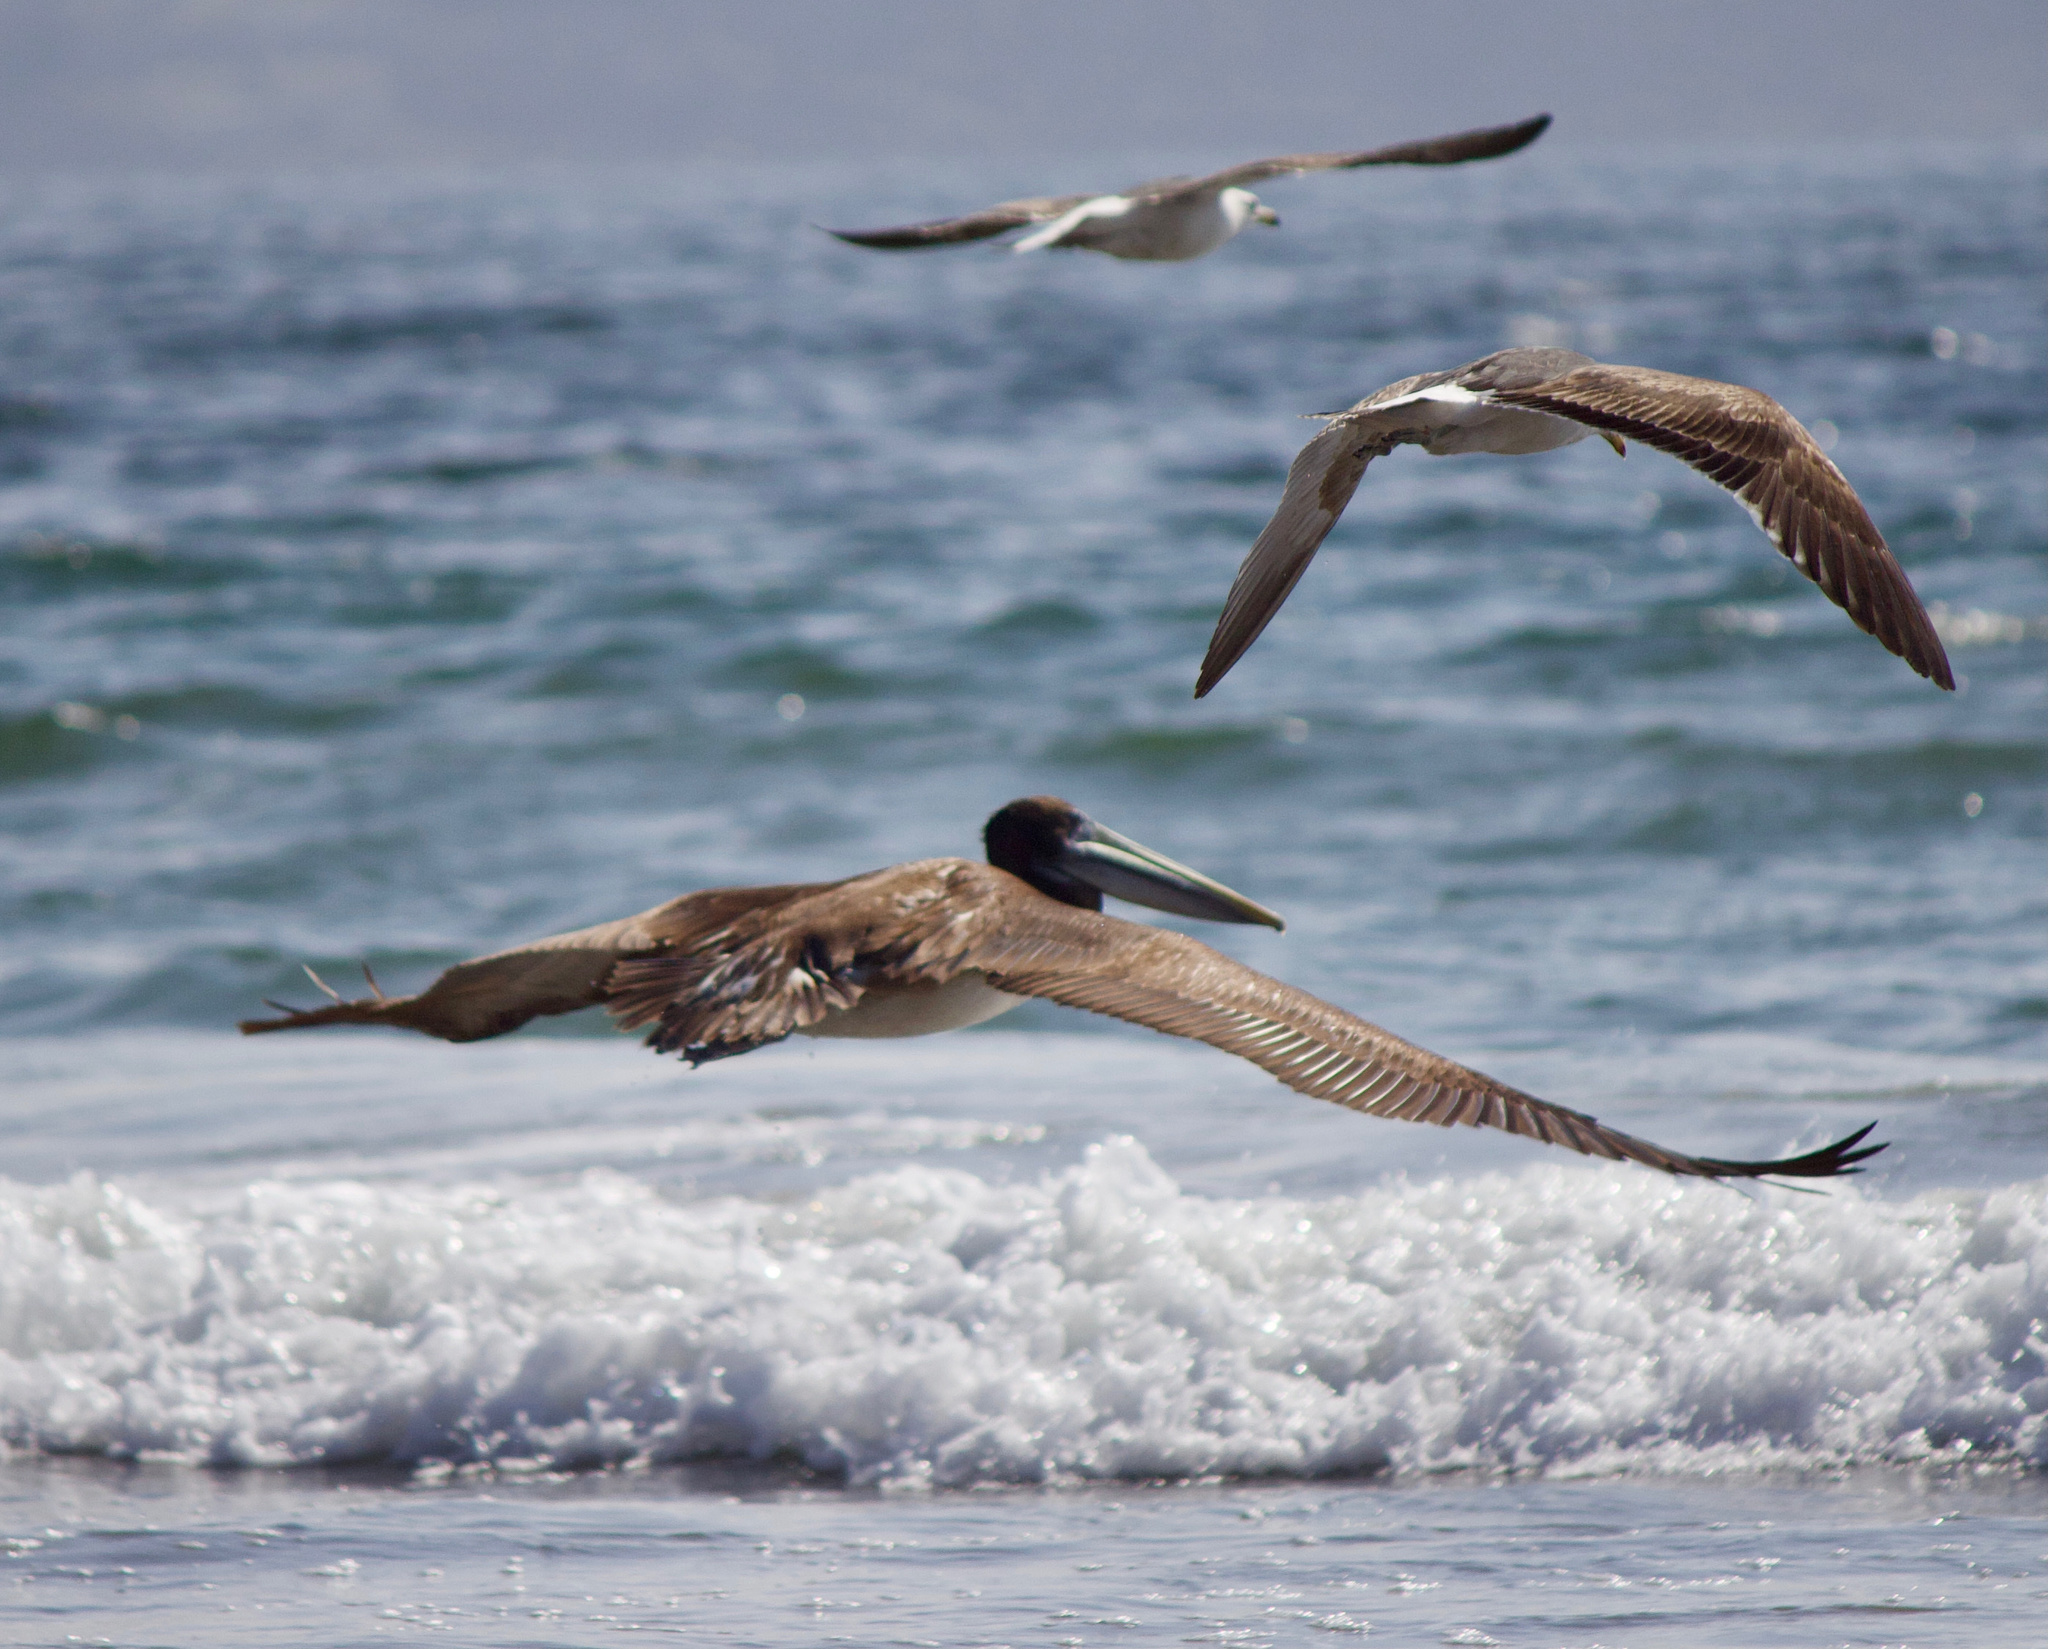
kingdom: Animalia
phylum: Chordata
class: Aves
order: Pelecaniformes
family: Pelecanidae
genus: Pelecanus
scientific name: Pelecanus thagus
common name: Peruvian pelican
